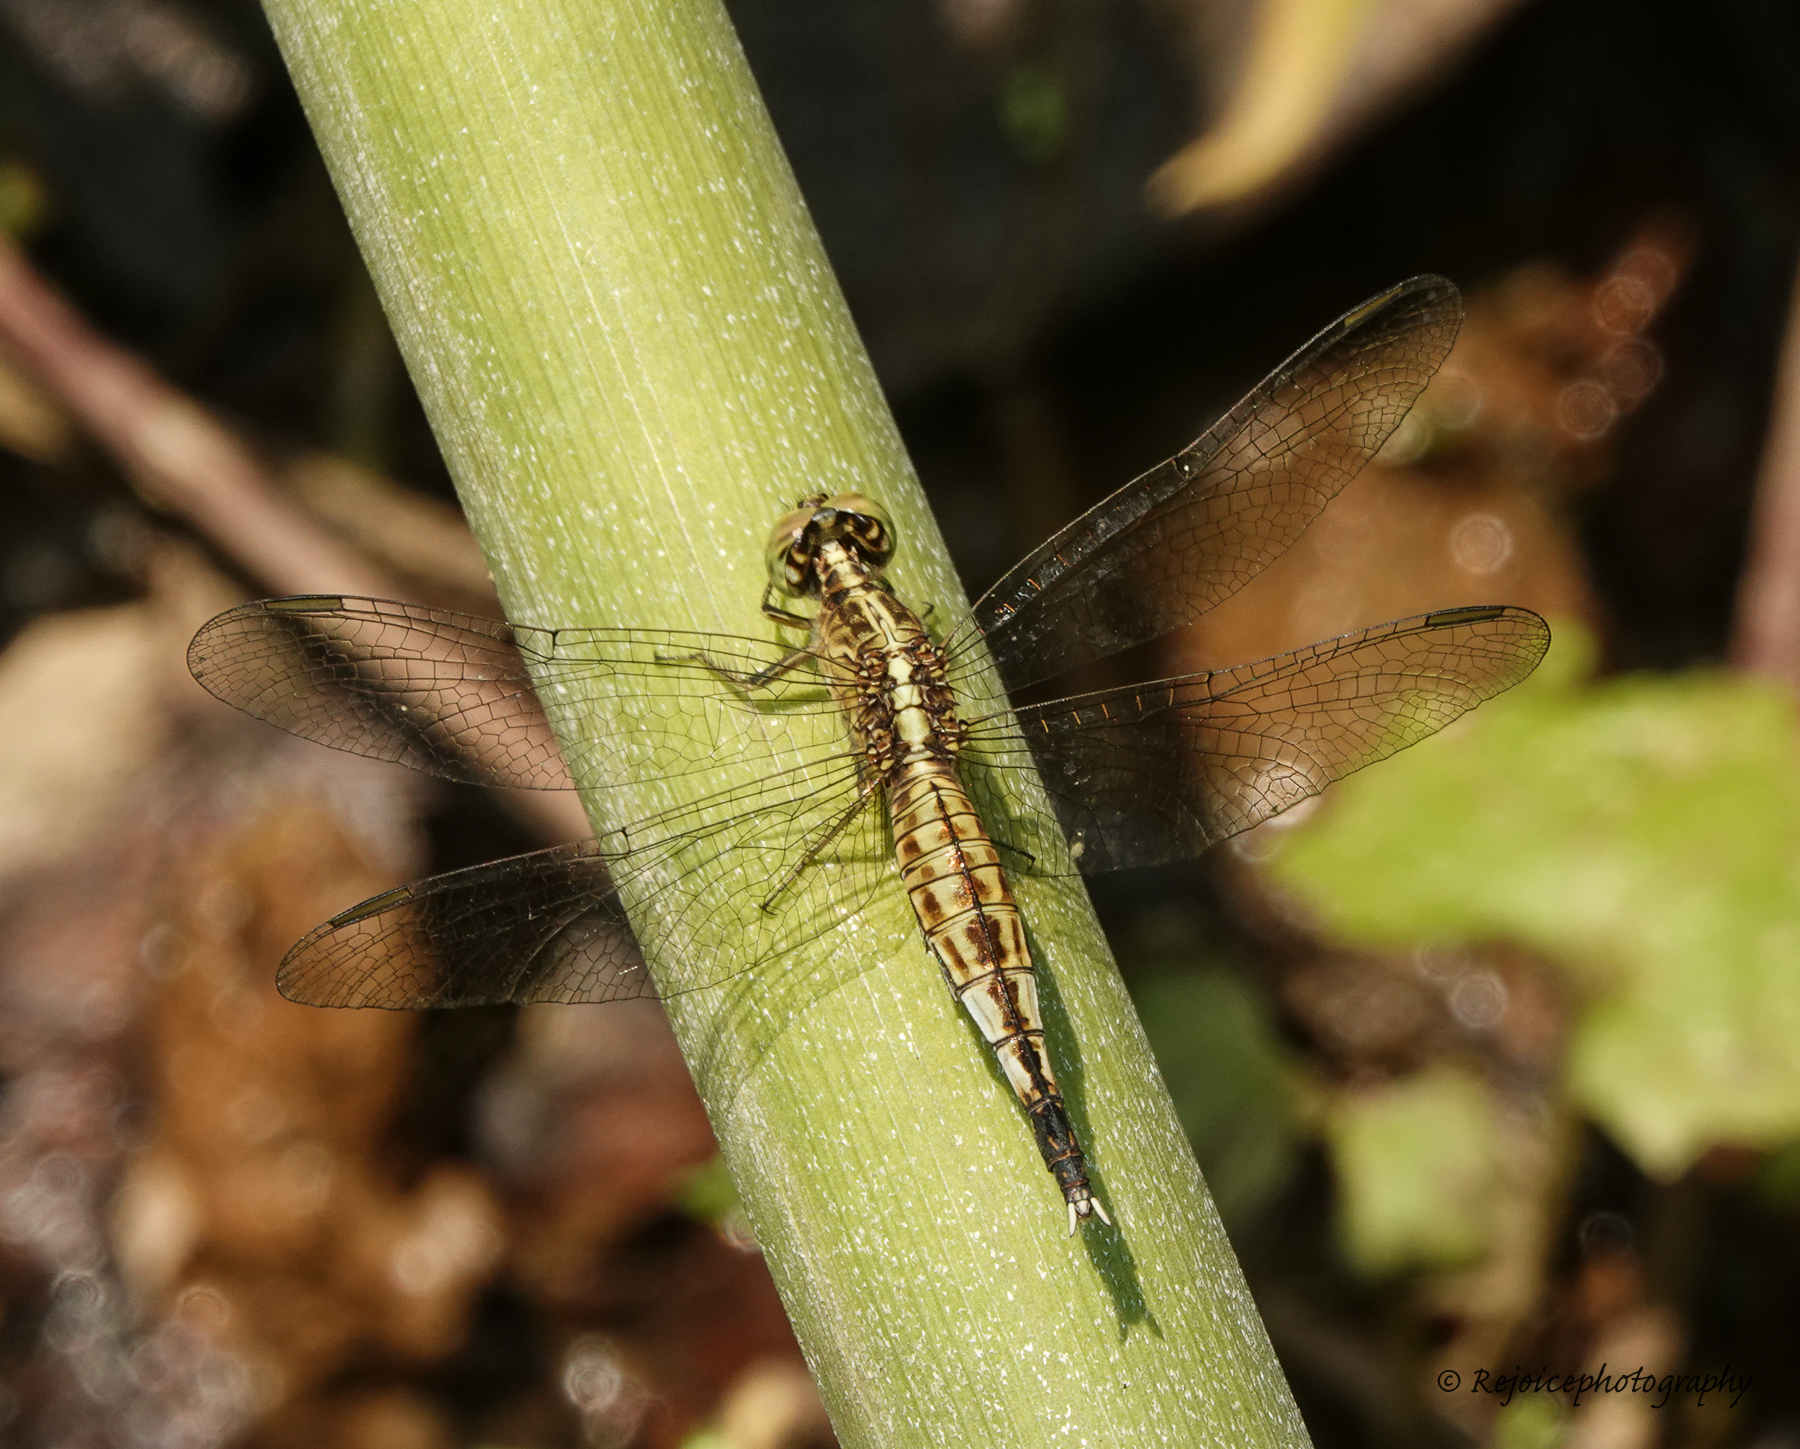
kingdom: Animalia
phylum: Arthropoda
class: Insecta
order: Odonata
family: Libellulidae
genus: Acisoma
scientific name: Acisoma panorpoides
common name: Asian pintail
